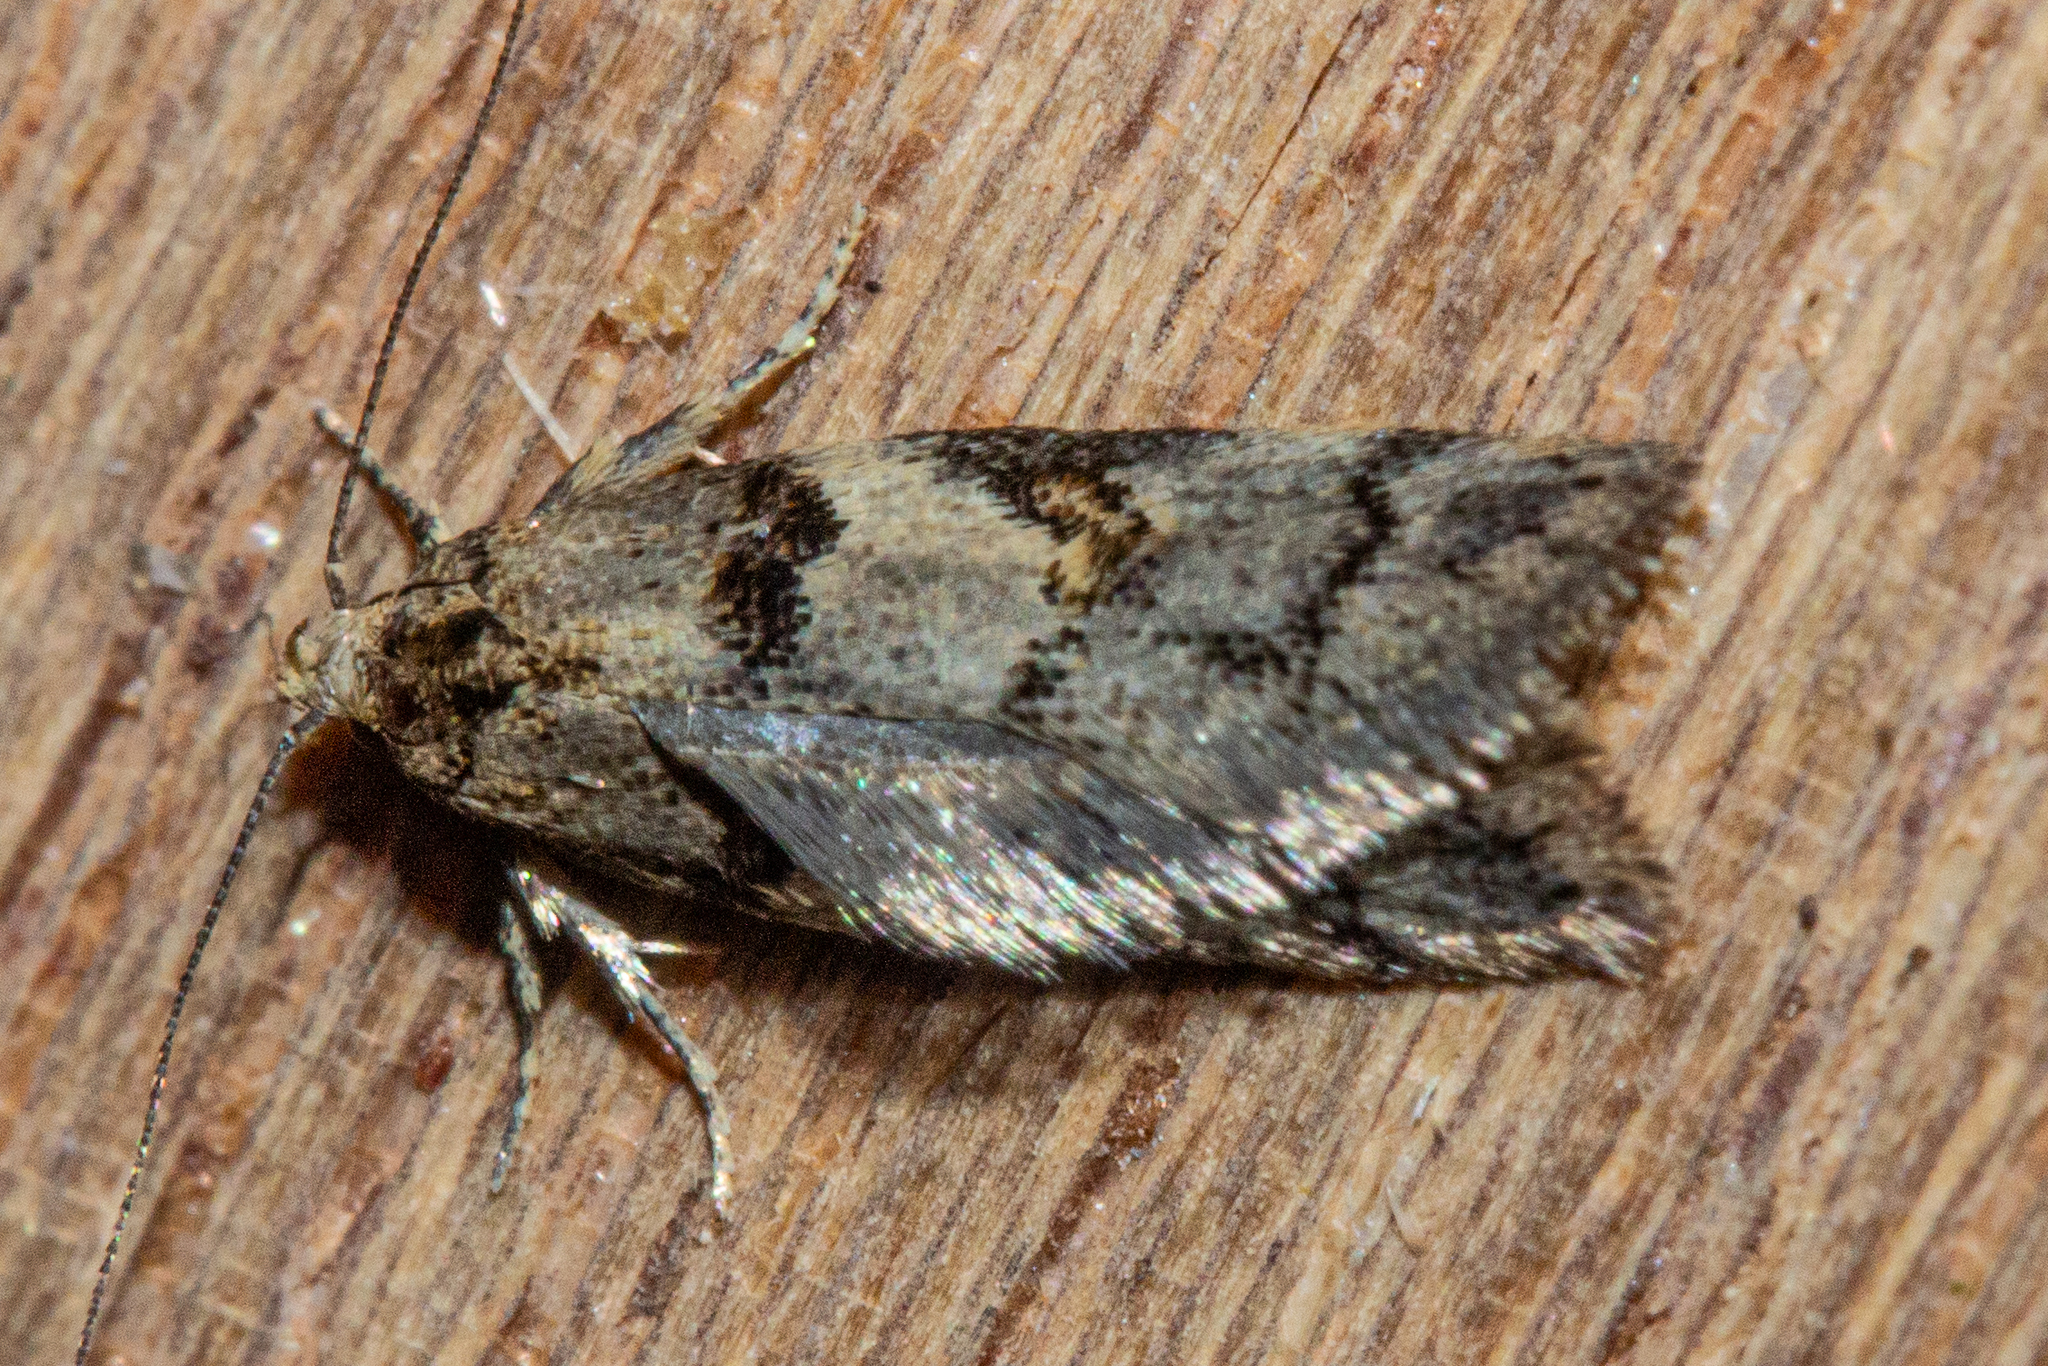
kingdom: Animalia
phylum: Arthropoda
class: Insecta
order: Lepidoptera
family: Oecophoridae
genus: Trachypepla
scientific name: Trachypepla contritella
